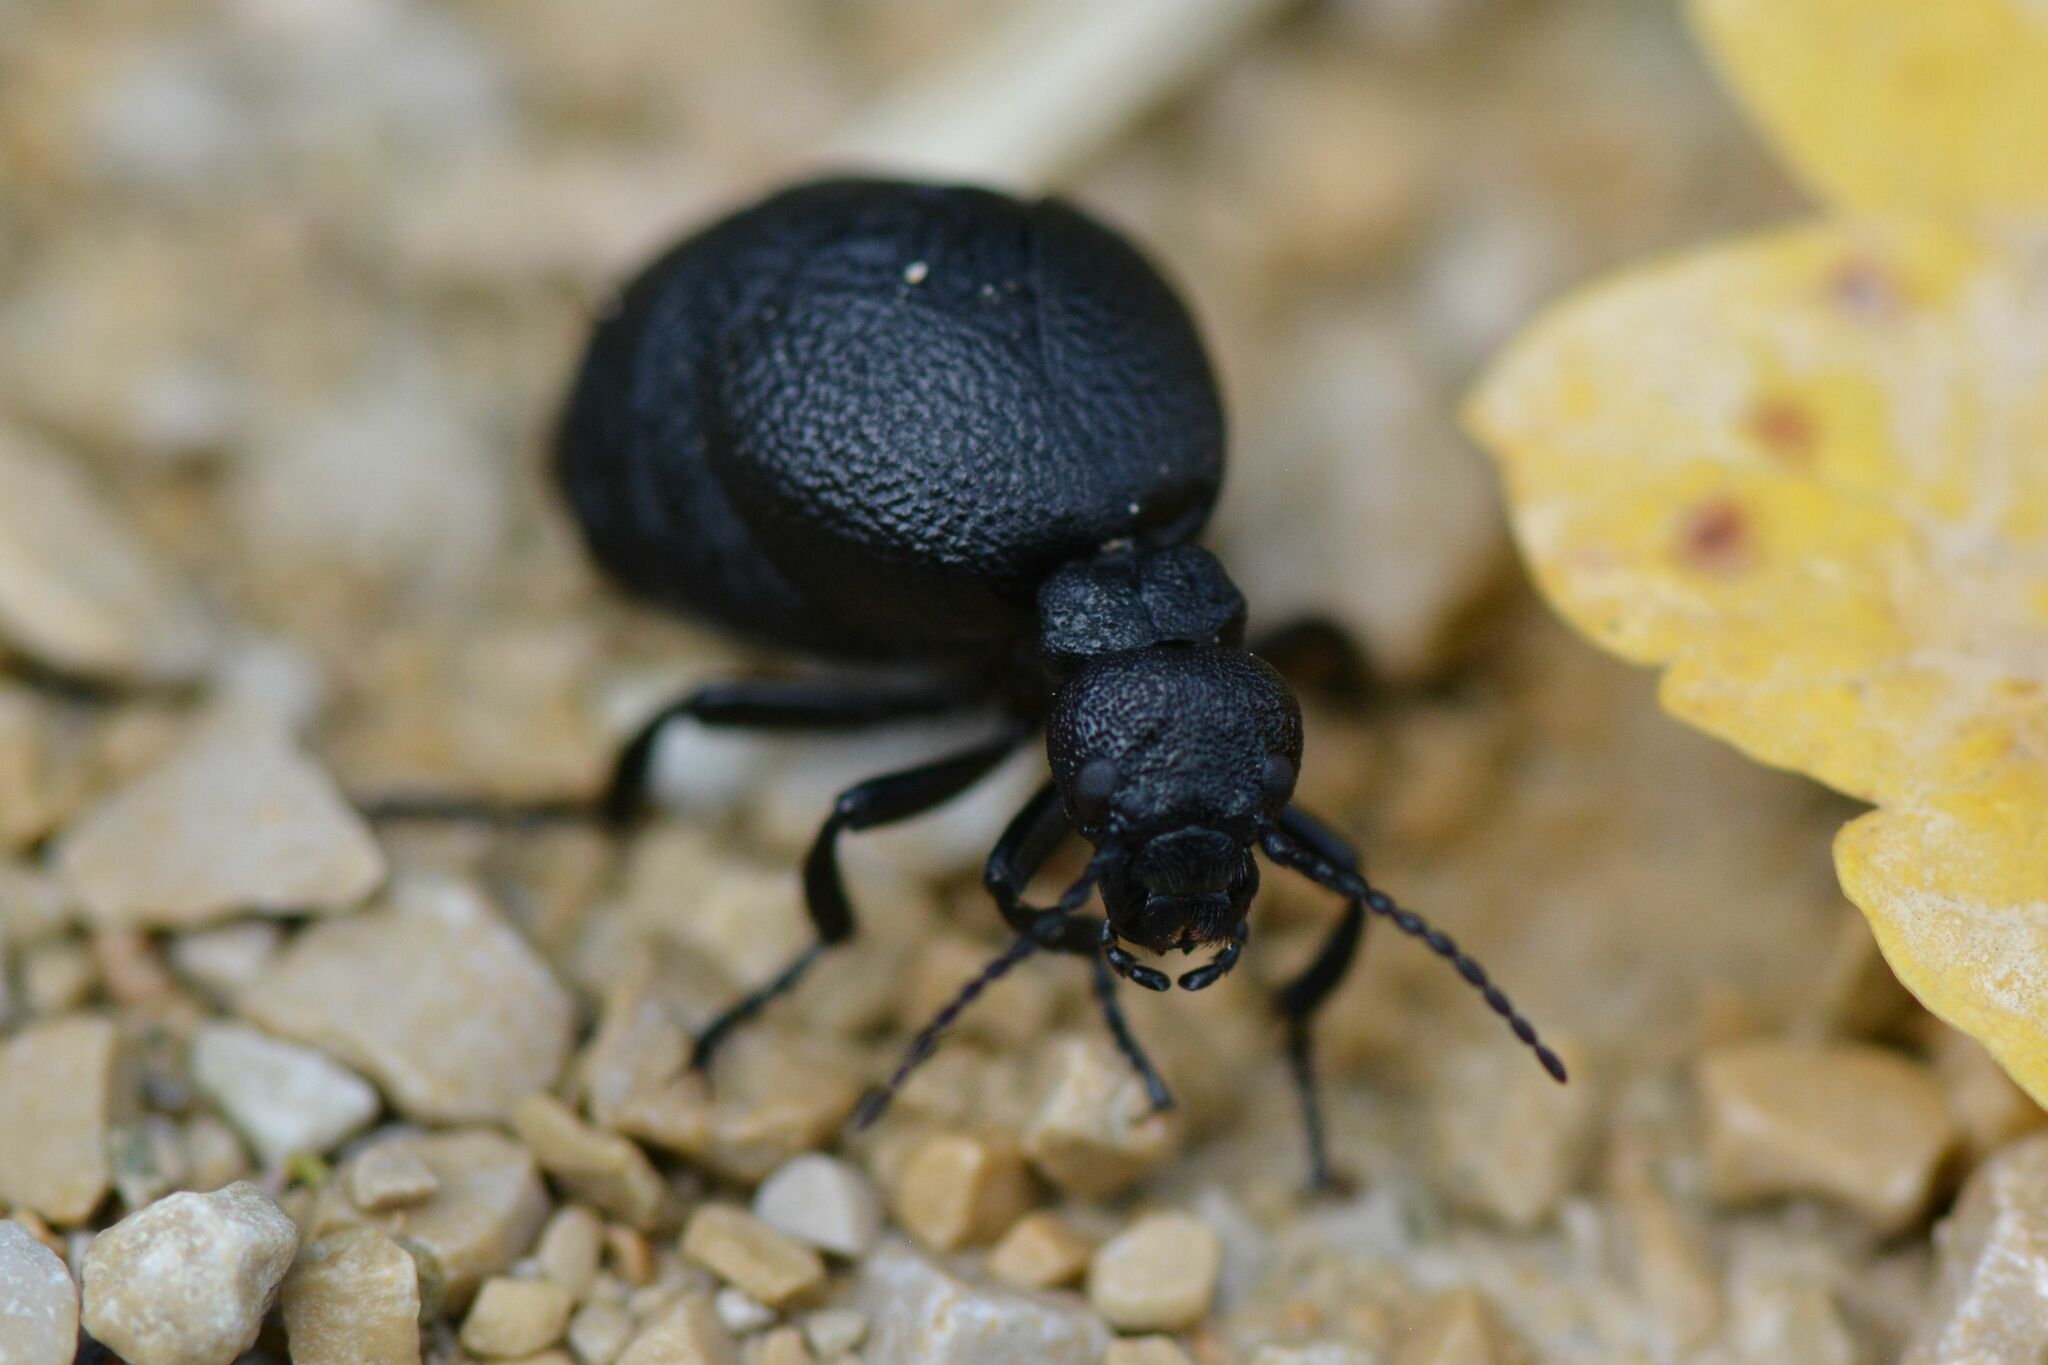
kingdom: Animalia
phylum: Arthropoda
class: Insecta
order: Coleoptera
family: Meloidae
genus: Meloe
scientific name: Meloe rugosus
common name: Rugged oil-beetle
